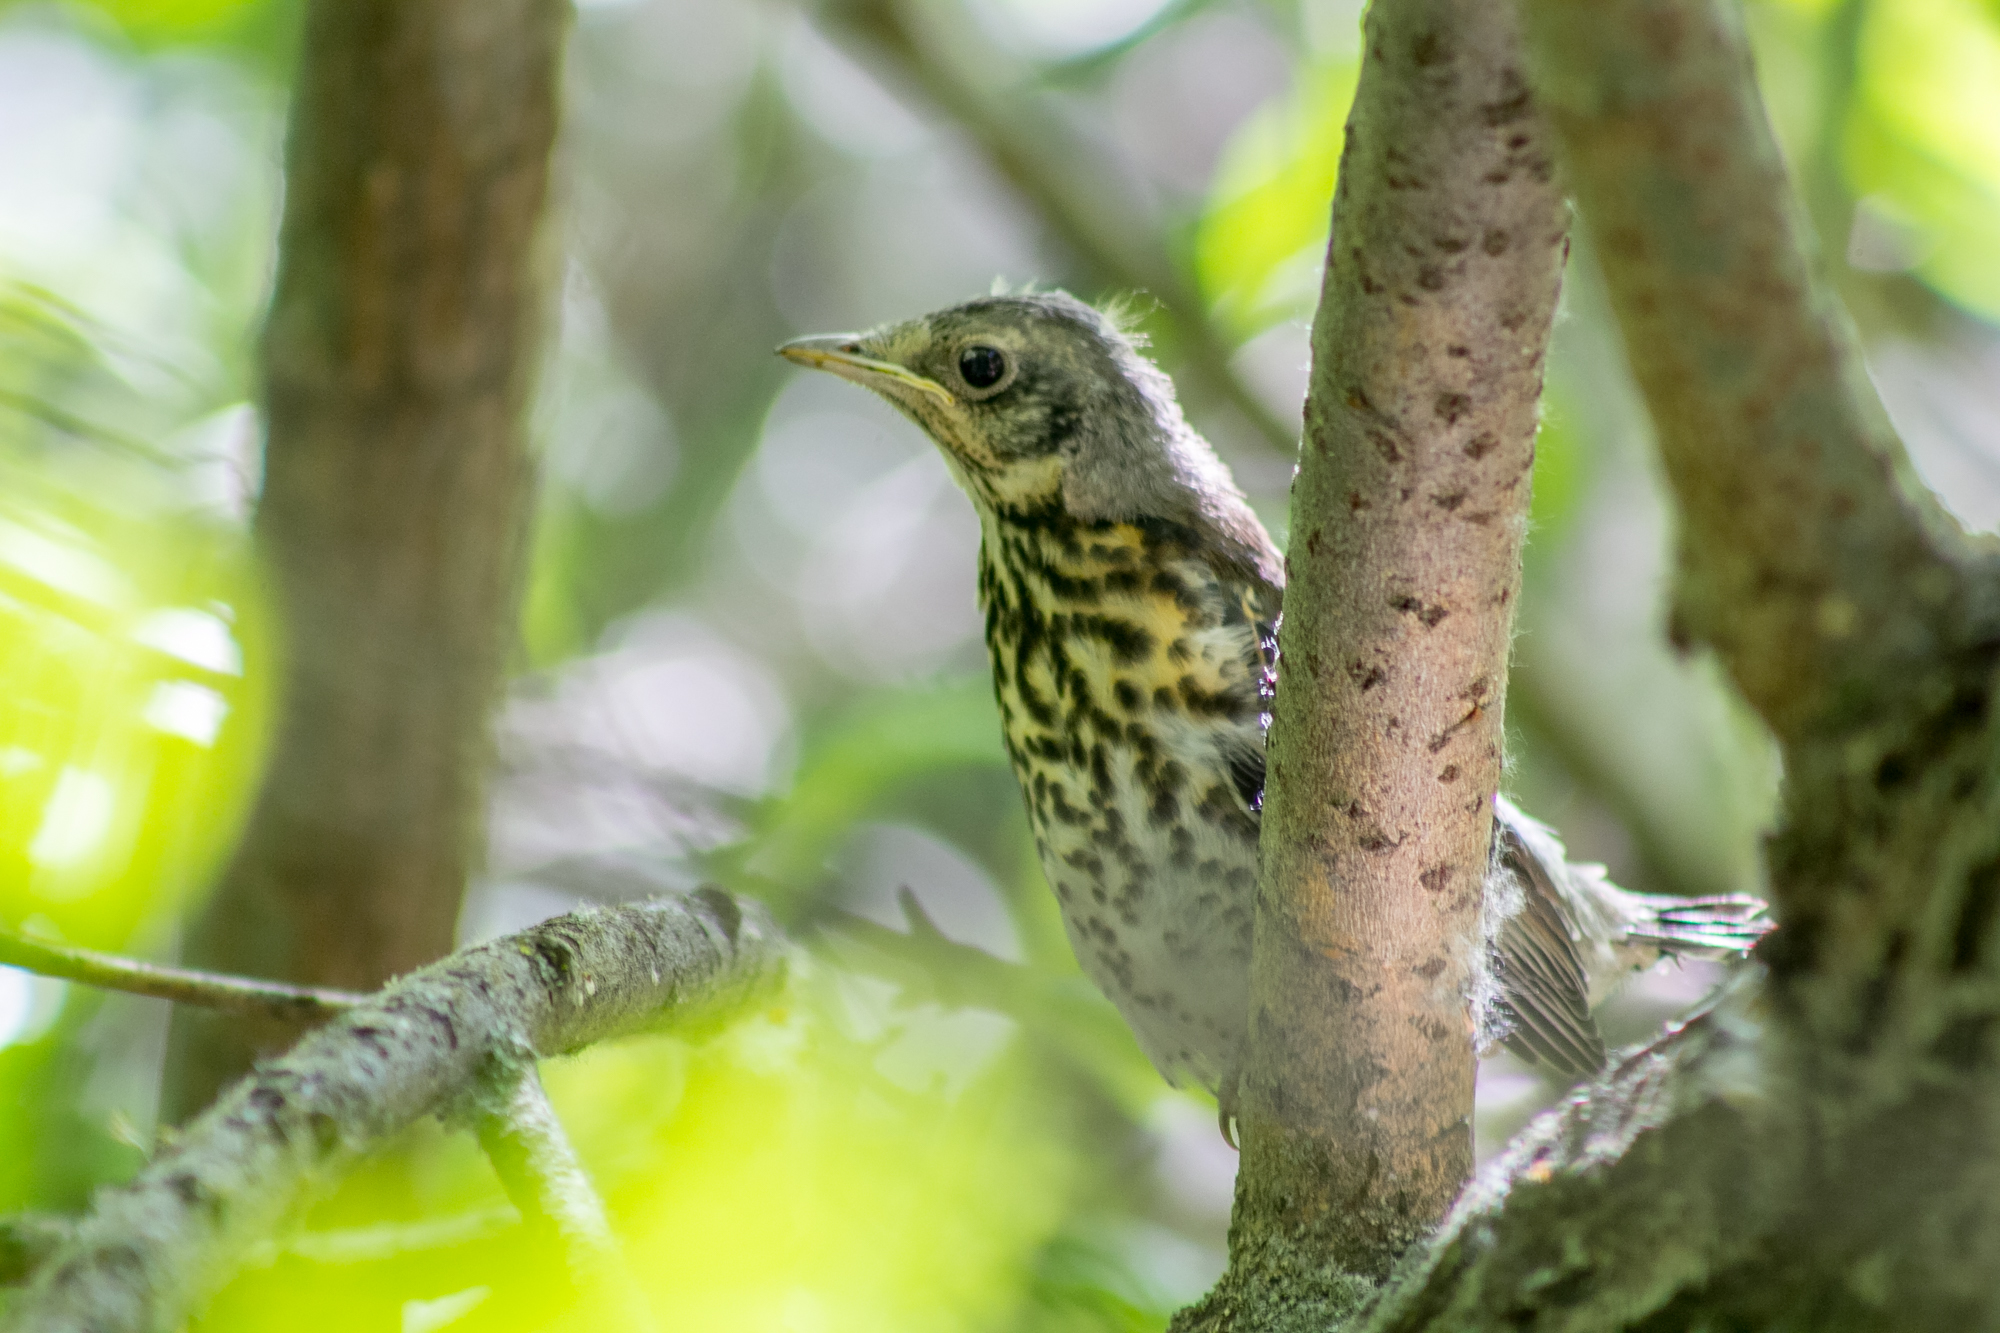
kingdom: Animalia
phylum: Chordata
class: Aves
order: Passeriformes
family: Turdidae
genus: Turdus
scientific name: Turdus pilaris
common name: Fieldfare
